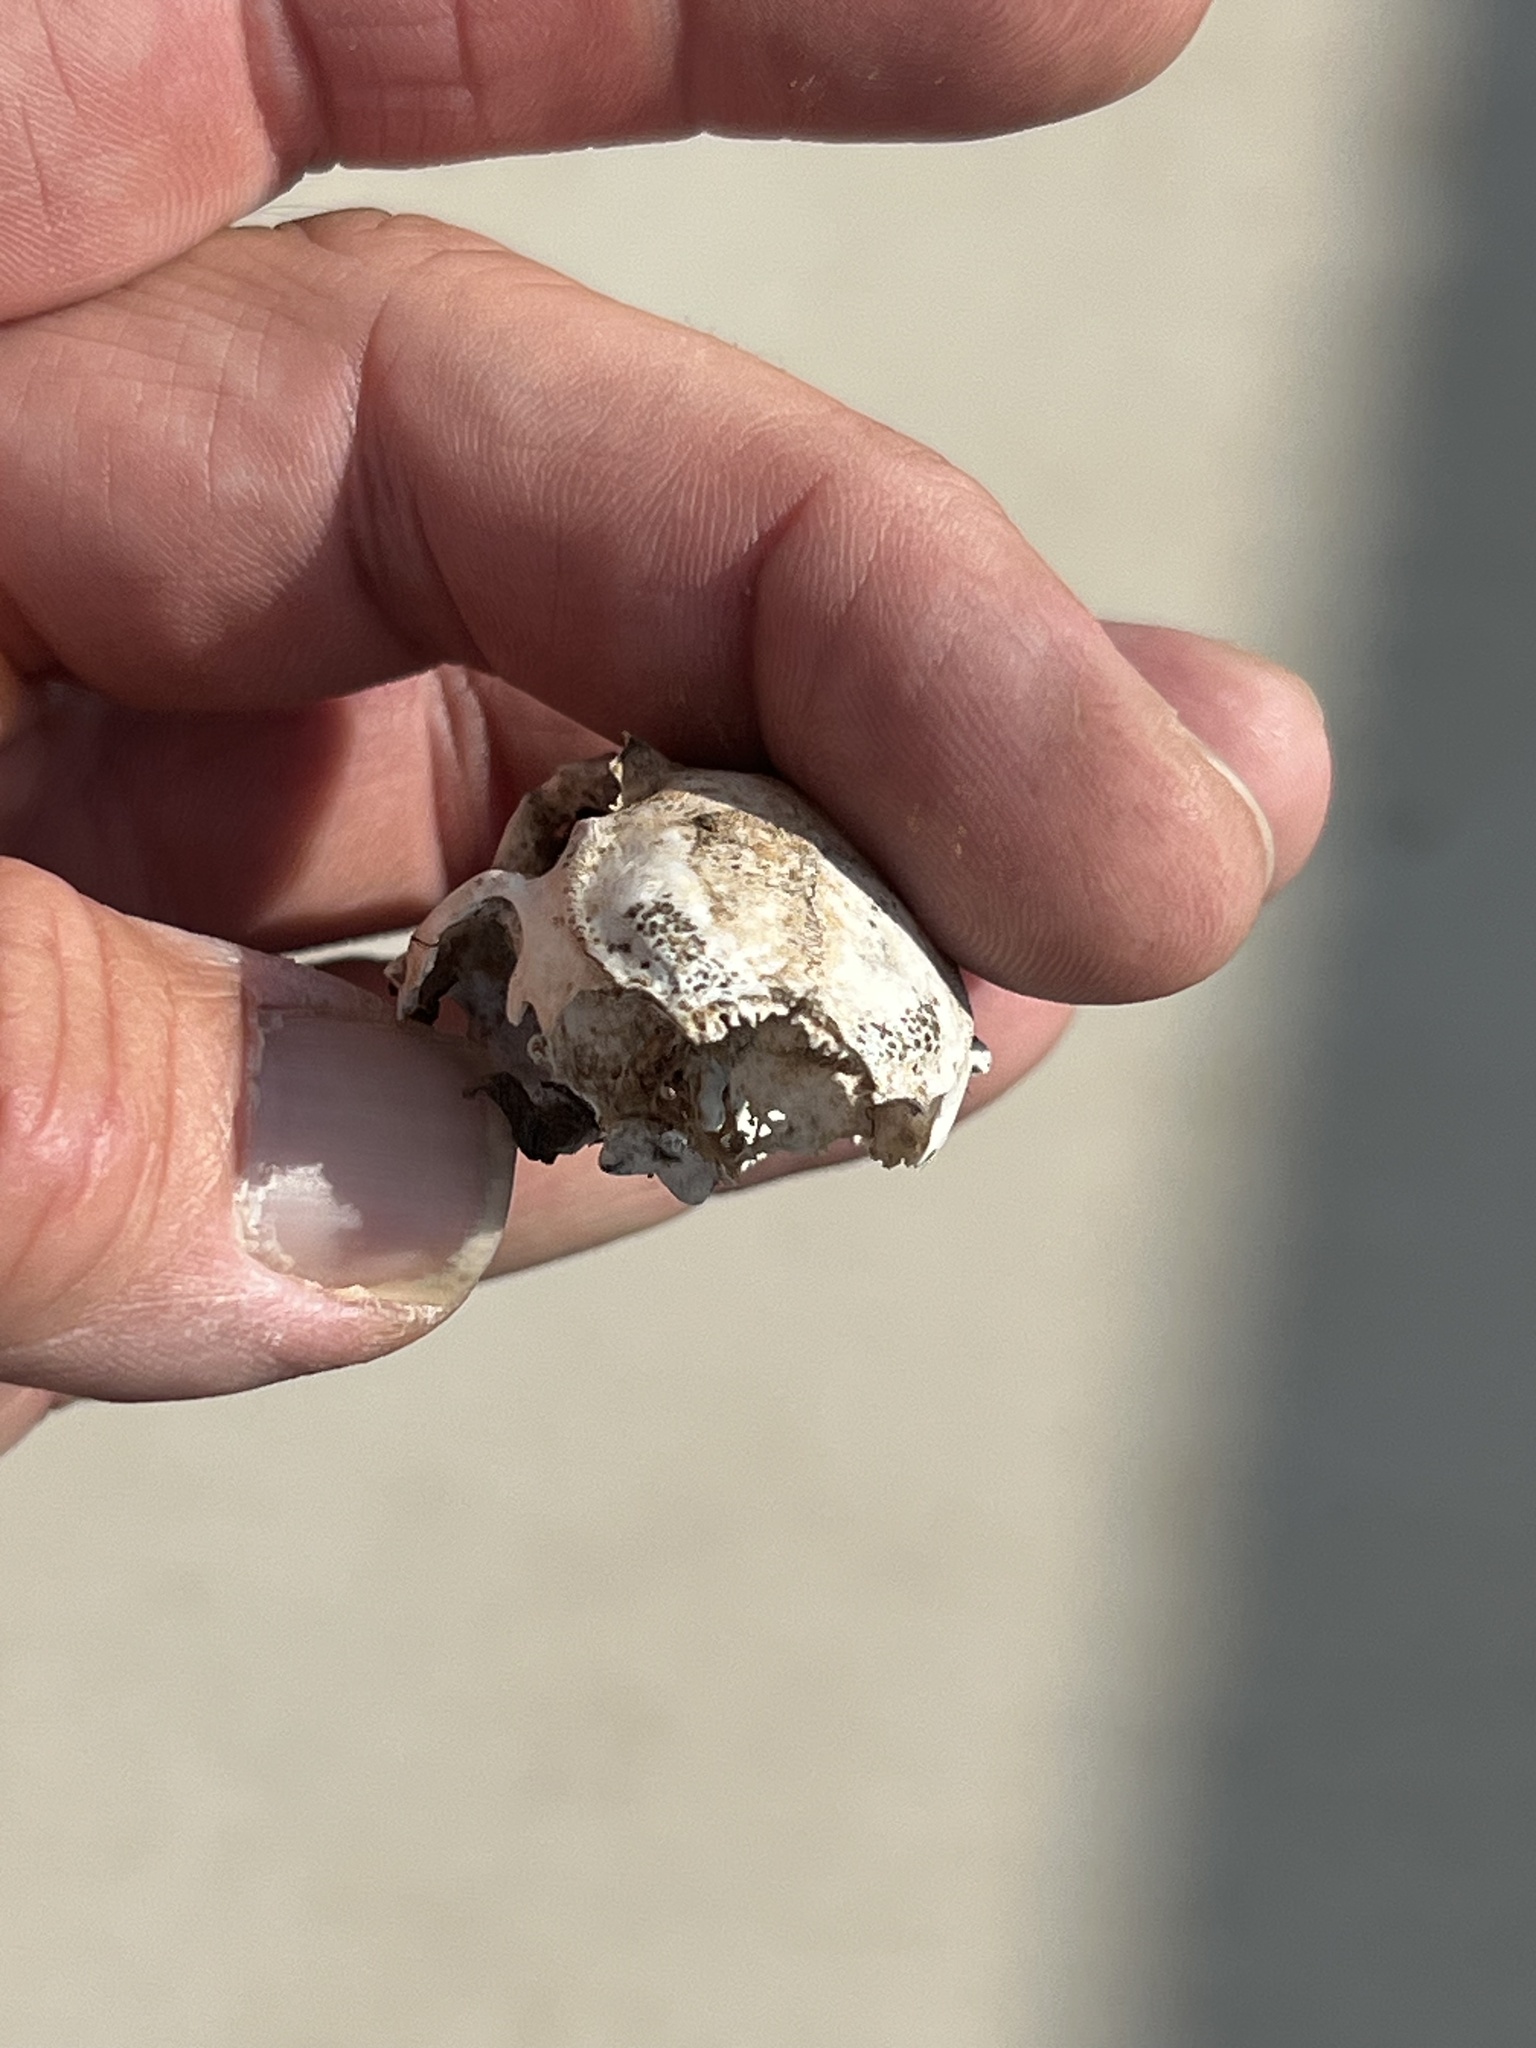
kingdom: Animalia
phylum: Chordata
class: Mammalia
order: Lagomorpha
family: Leporidae
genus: Sylvilagus
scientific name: Sylvilagus audubonii
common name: Desert cottontail
